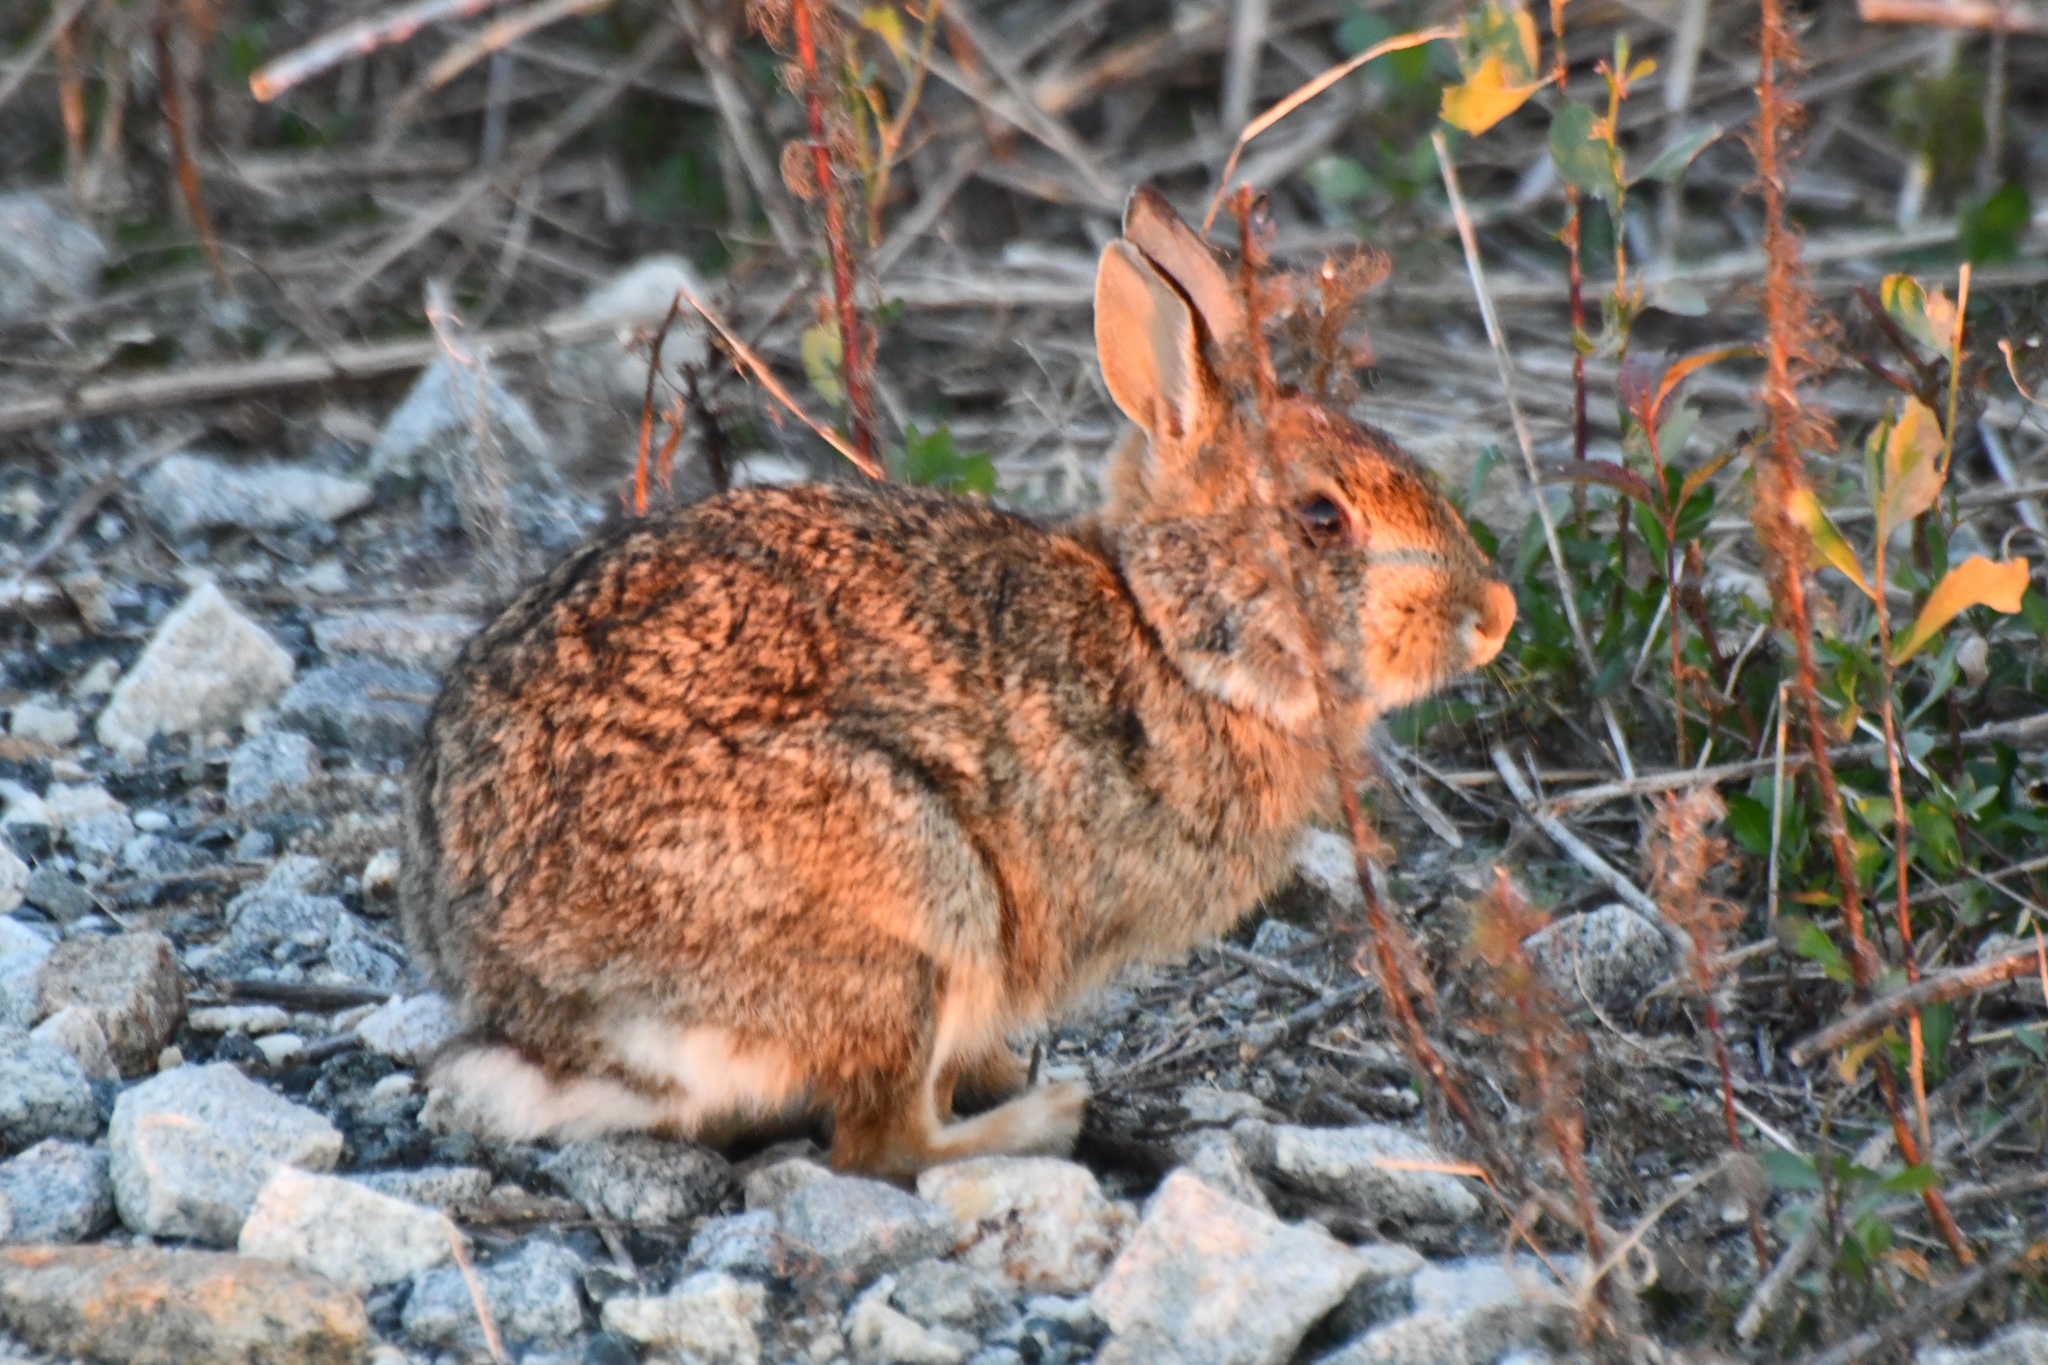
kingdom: Animalia
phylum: Chordata
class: Mammalia
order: Lagomorpha
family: Leporidae
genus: Sylvilagus
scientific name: Sylvilagus floridanus
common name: Eastern cottontail
